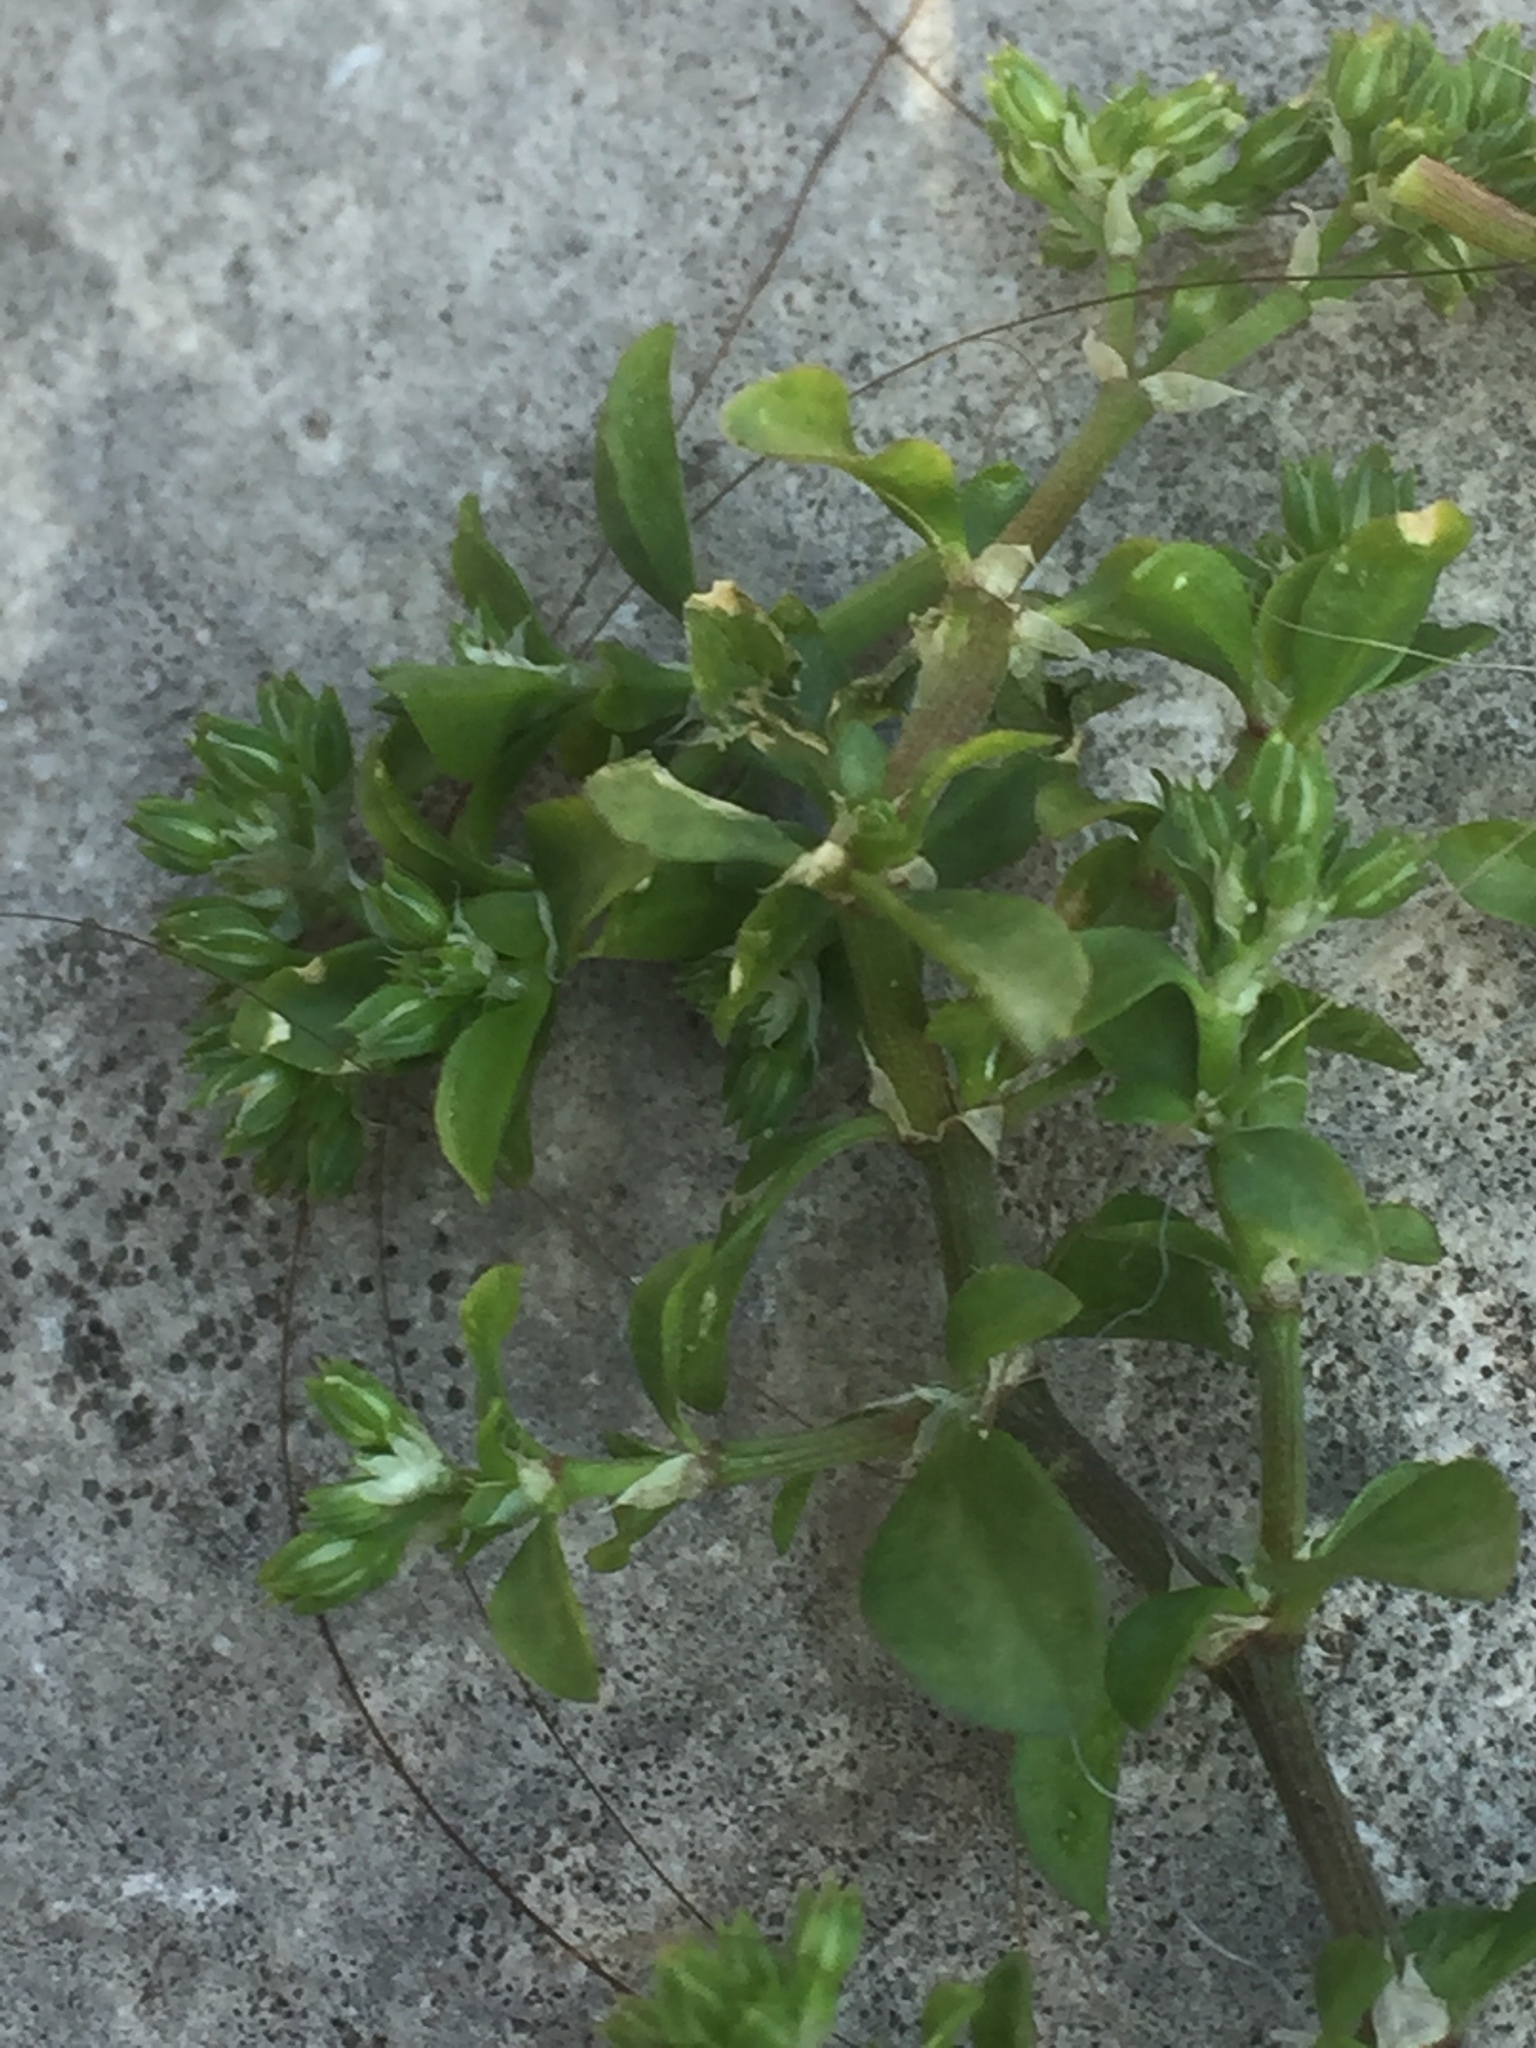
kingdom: Plantae
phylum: Tracheophyta
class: Magnoliopsida
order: Caryophyllales
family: Caryophyllaceae
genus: Polycarpon
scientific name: Polycarpon tetraphyllum
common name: Four-leaved all-seed
